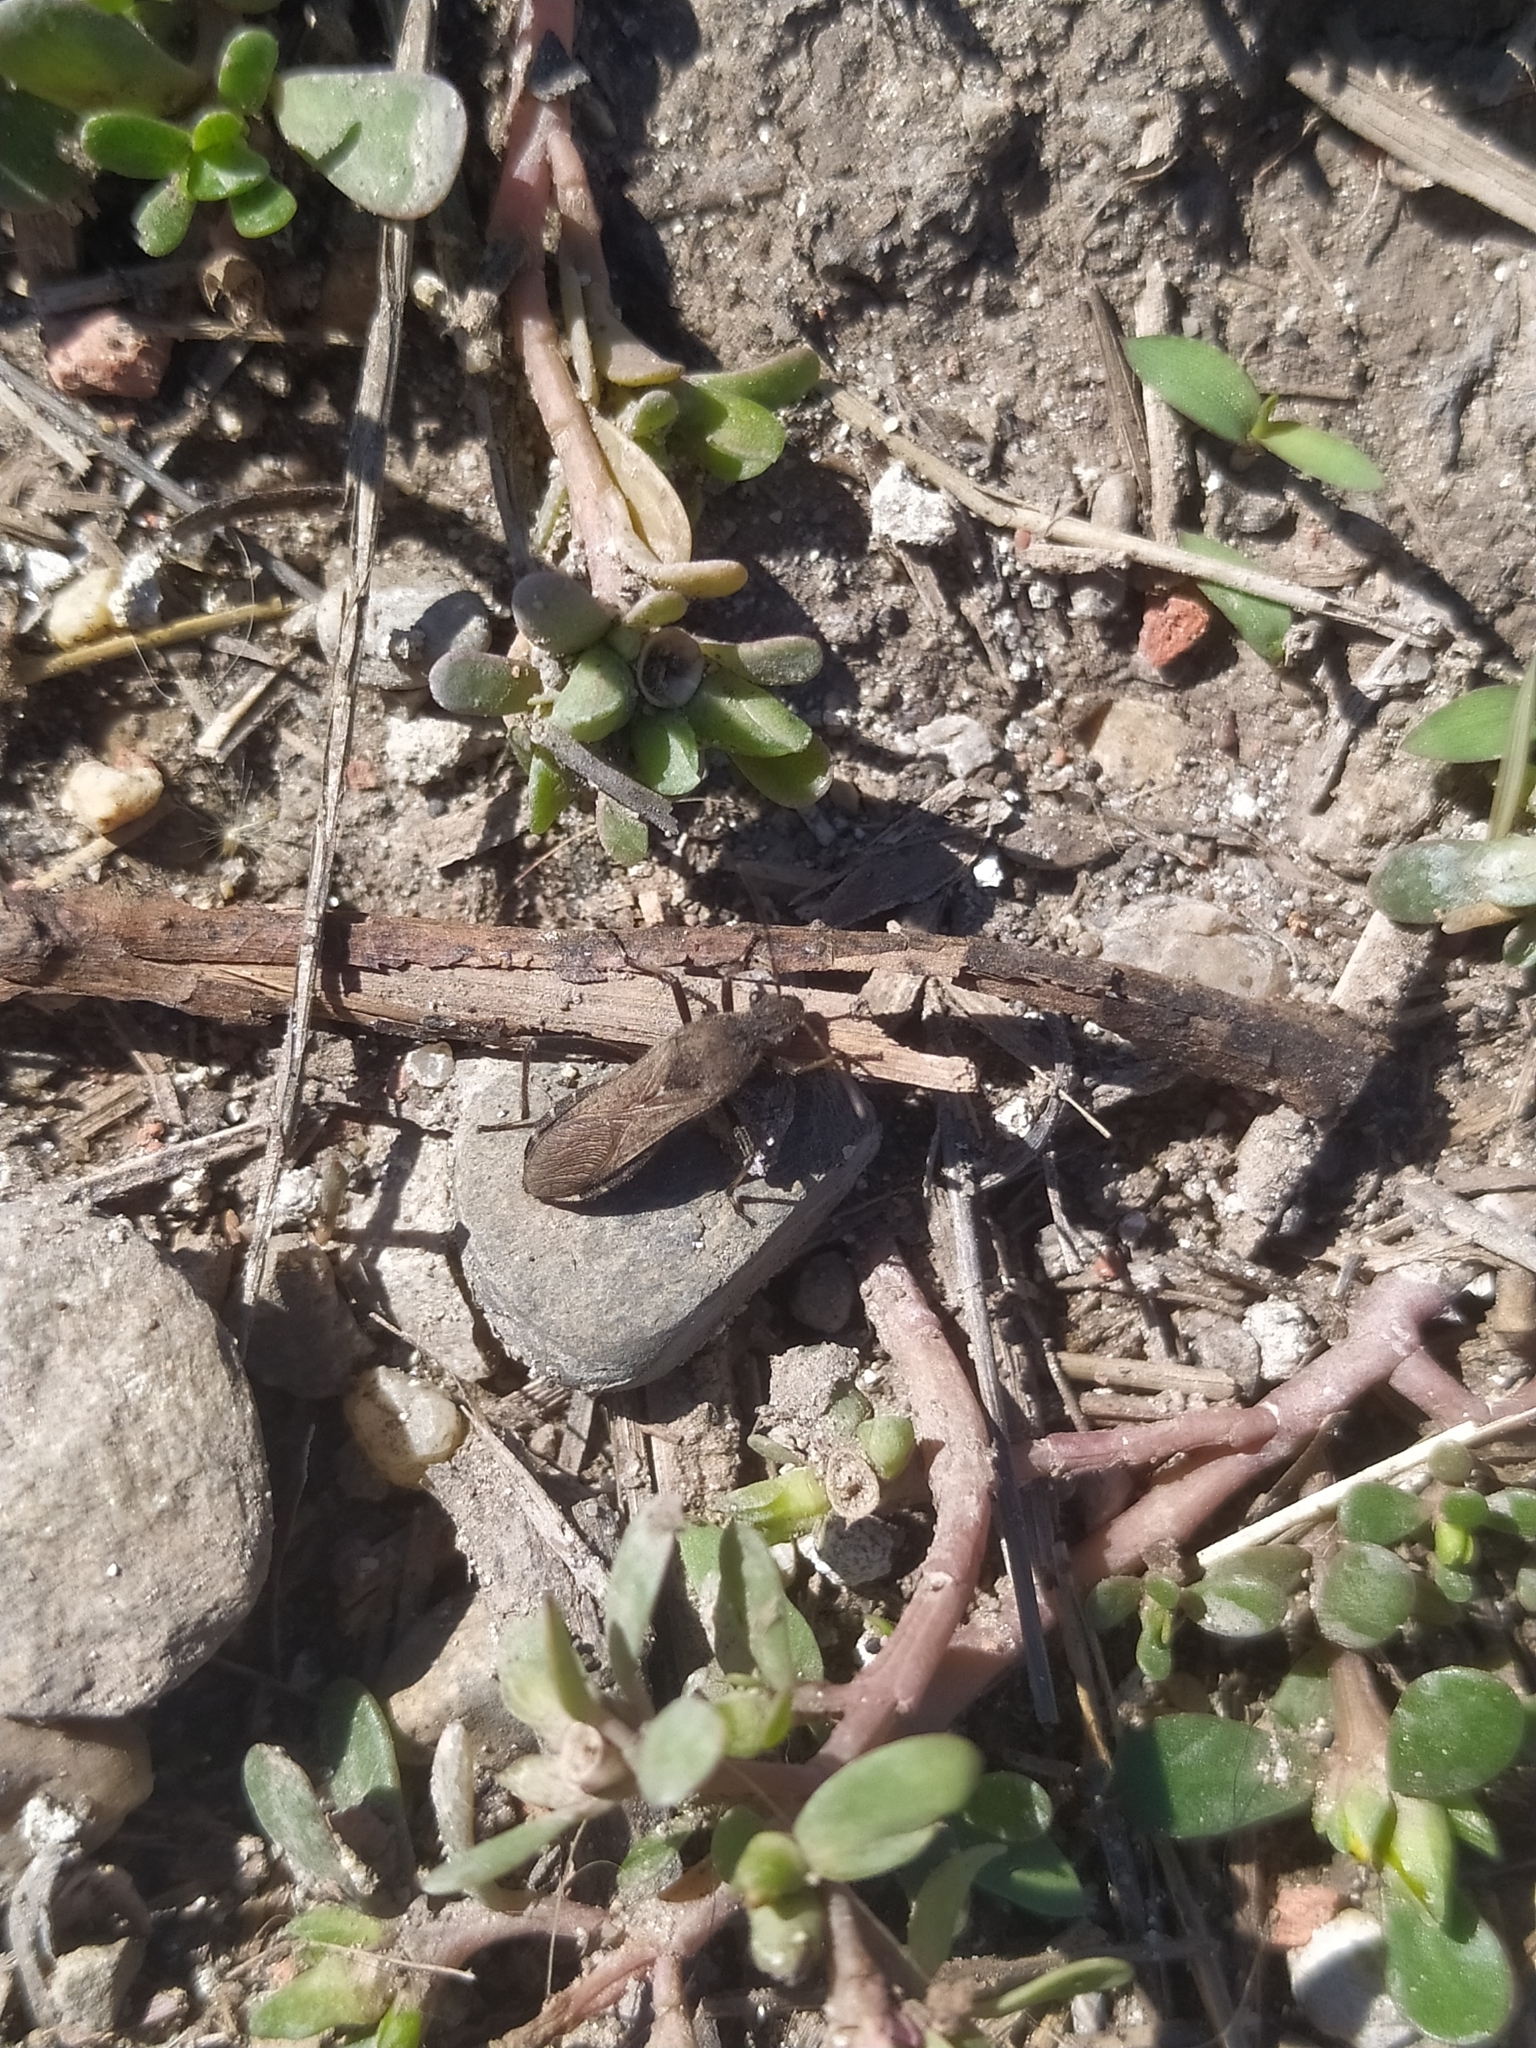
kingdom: Animalia
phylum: Arthropoda
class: Insecta
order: Hemiptera
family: Alydidae
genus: Alydus
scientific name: Alydus calcaratus
